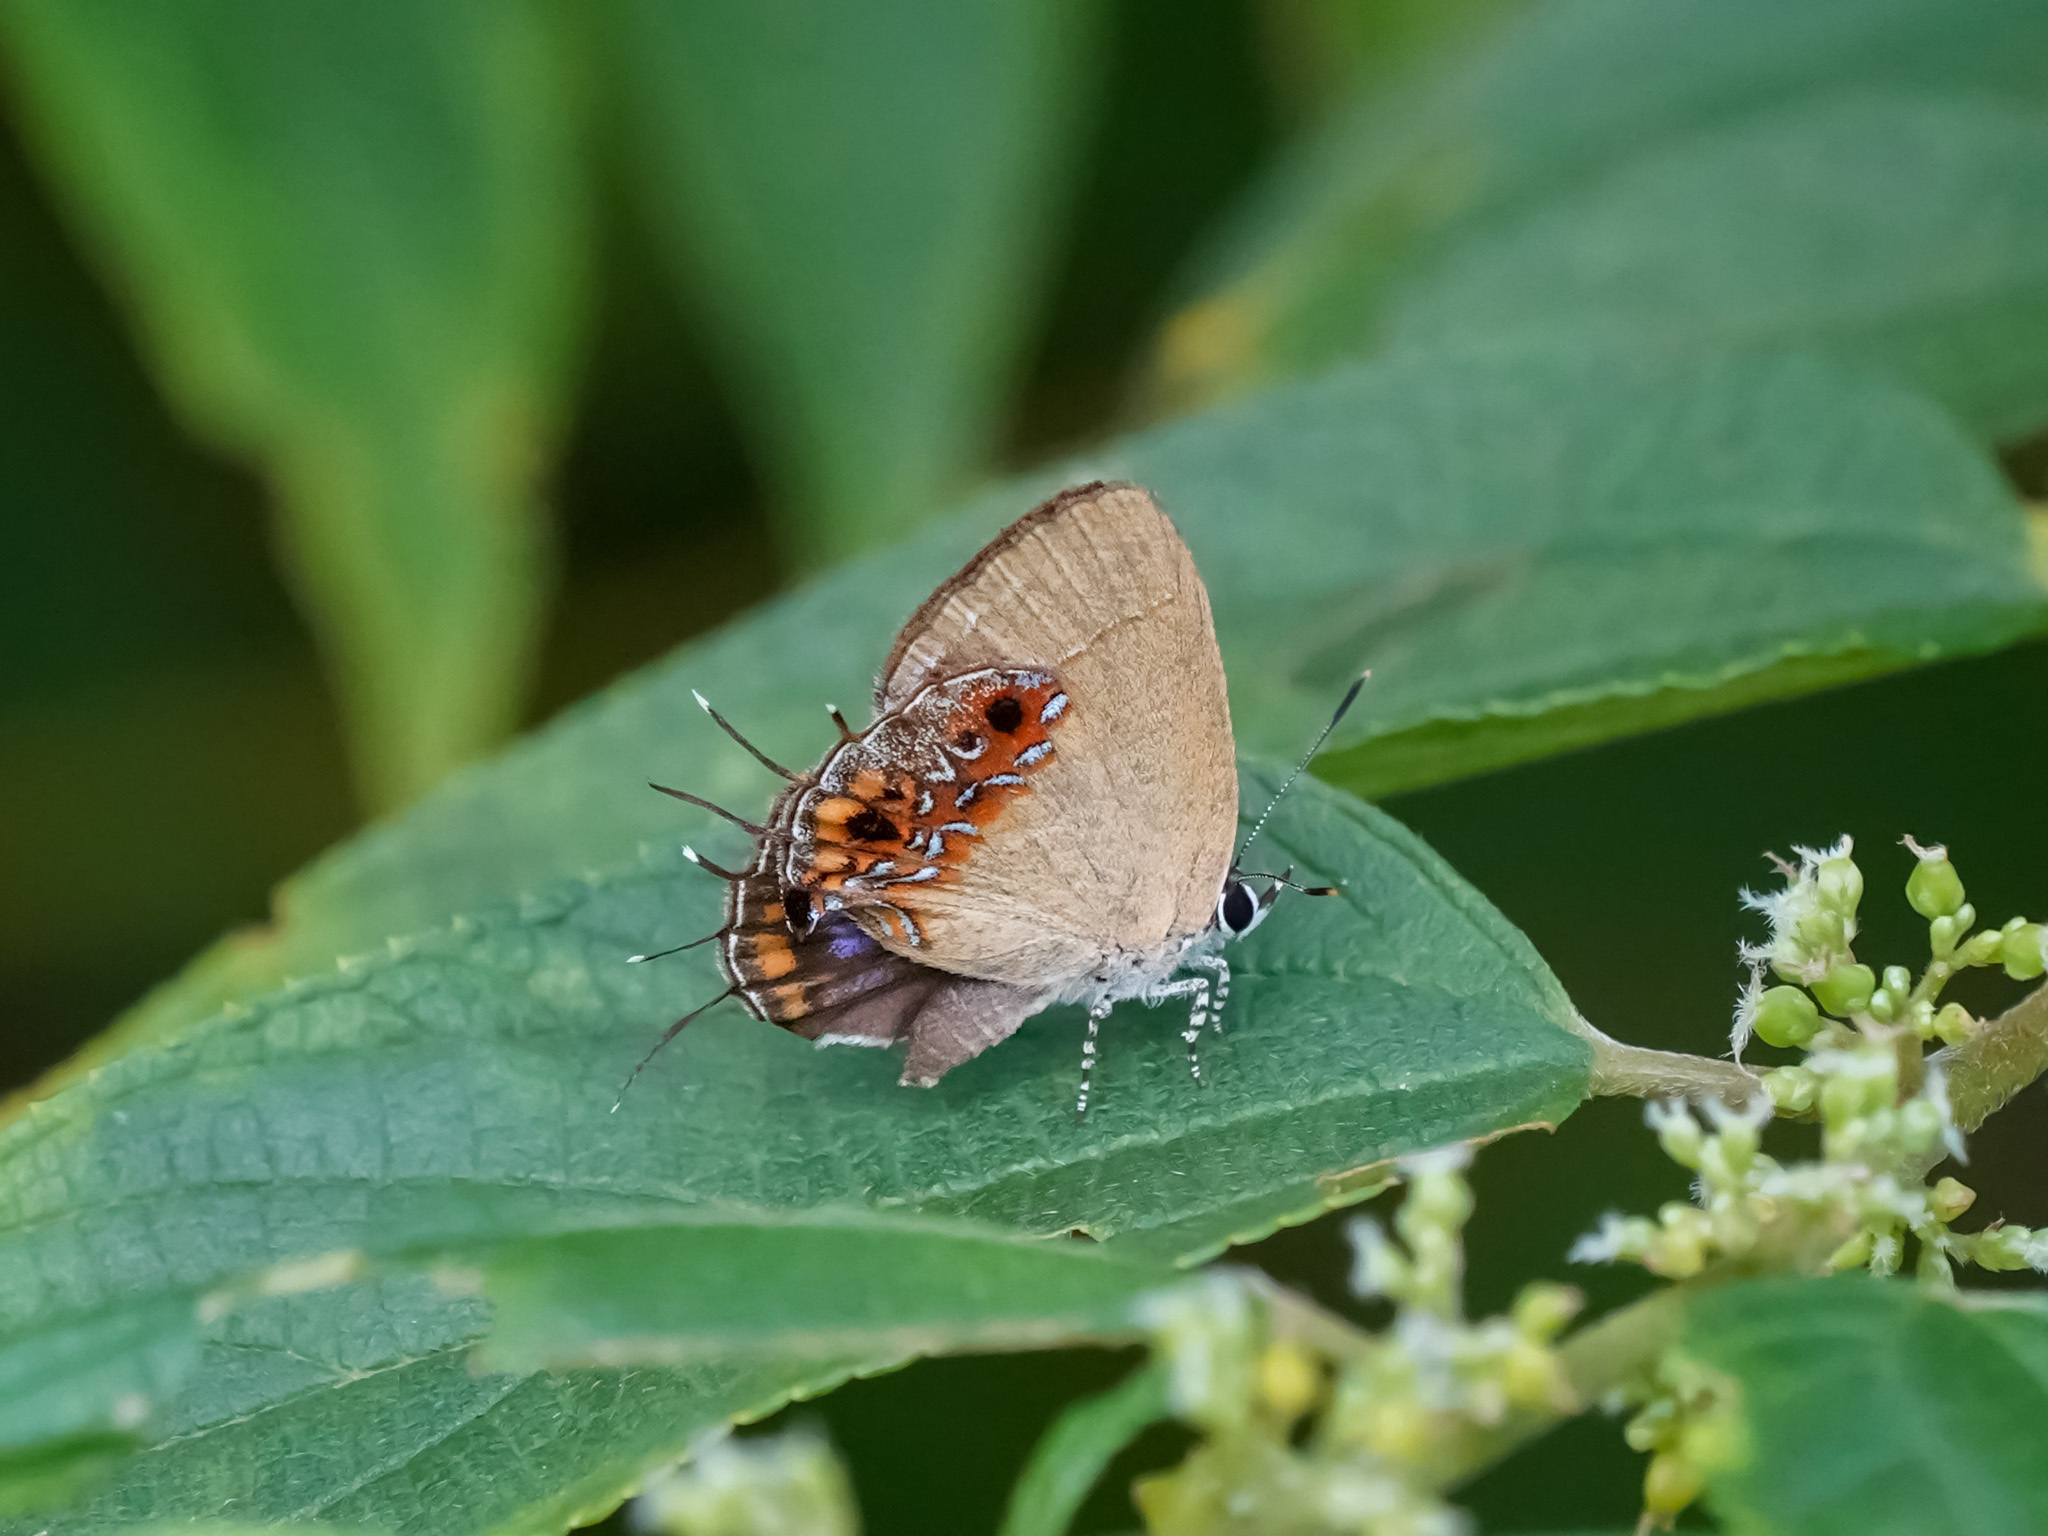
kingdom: Animalia
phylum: Arthropoda
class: Insecta
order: Lepidoptera
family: Lycaenidae
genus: Semanga
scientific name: Semanga superba
